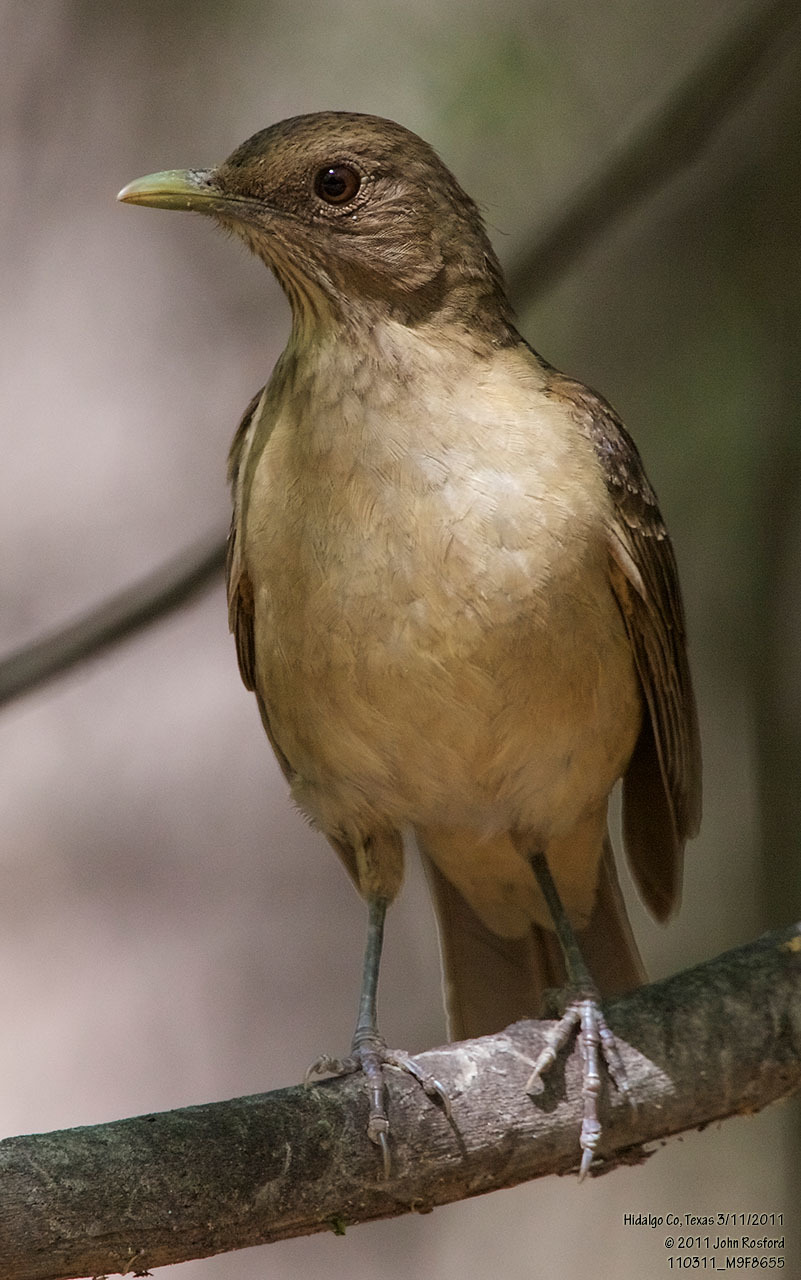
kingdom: Animalia
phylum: Chordata
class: Aves
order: Passeriformes
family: Turdidae
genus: Turdus
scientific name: Turdus grayi
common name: Clay-colored thrush
